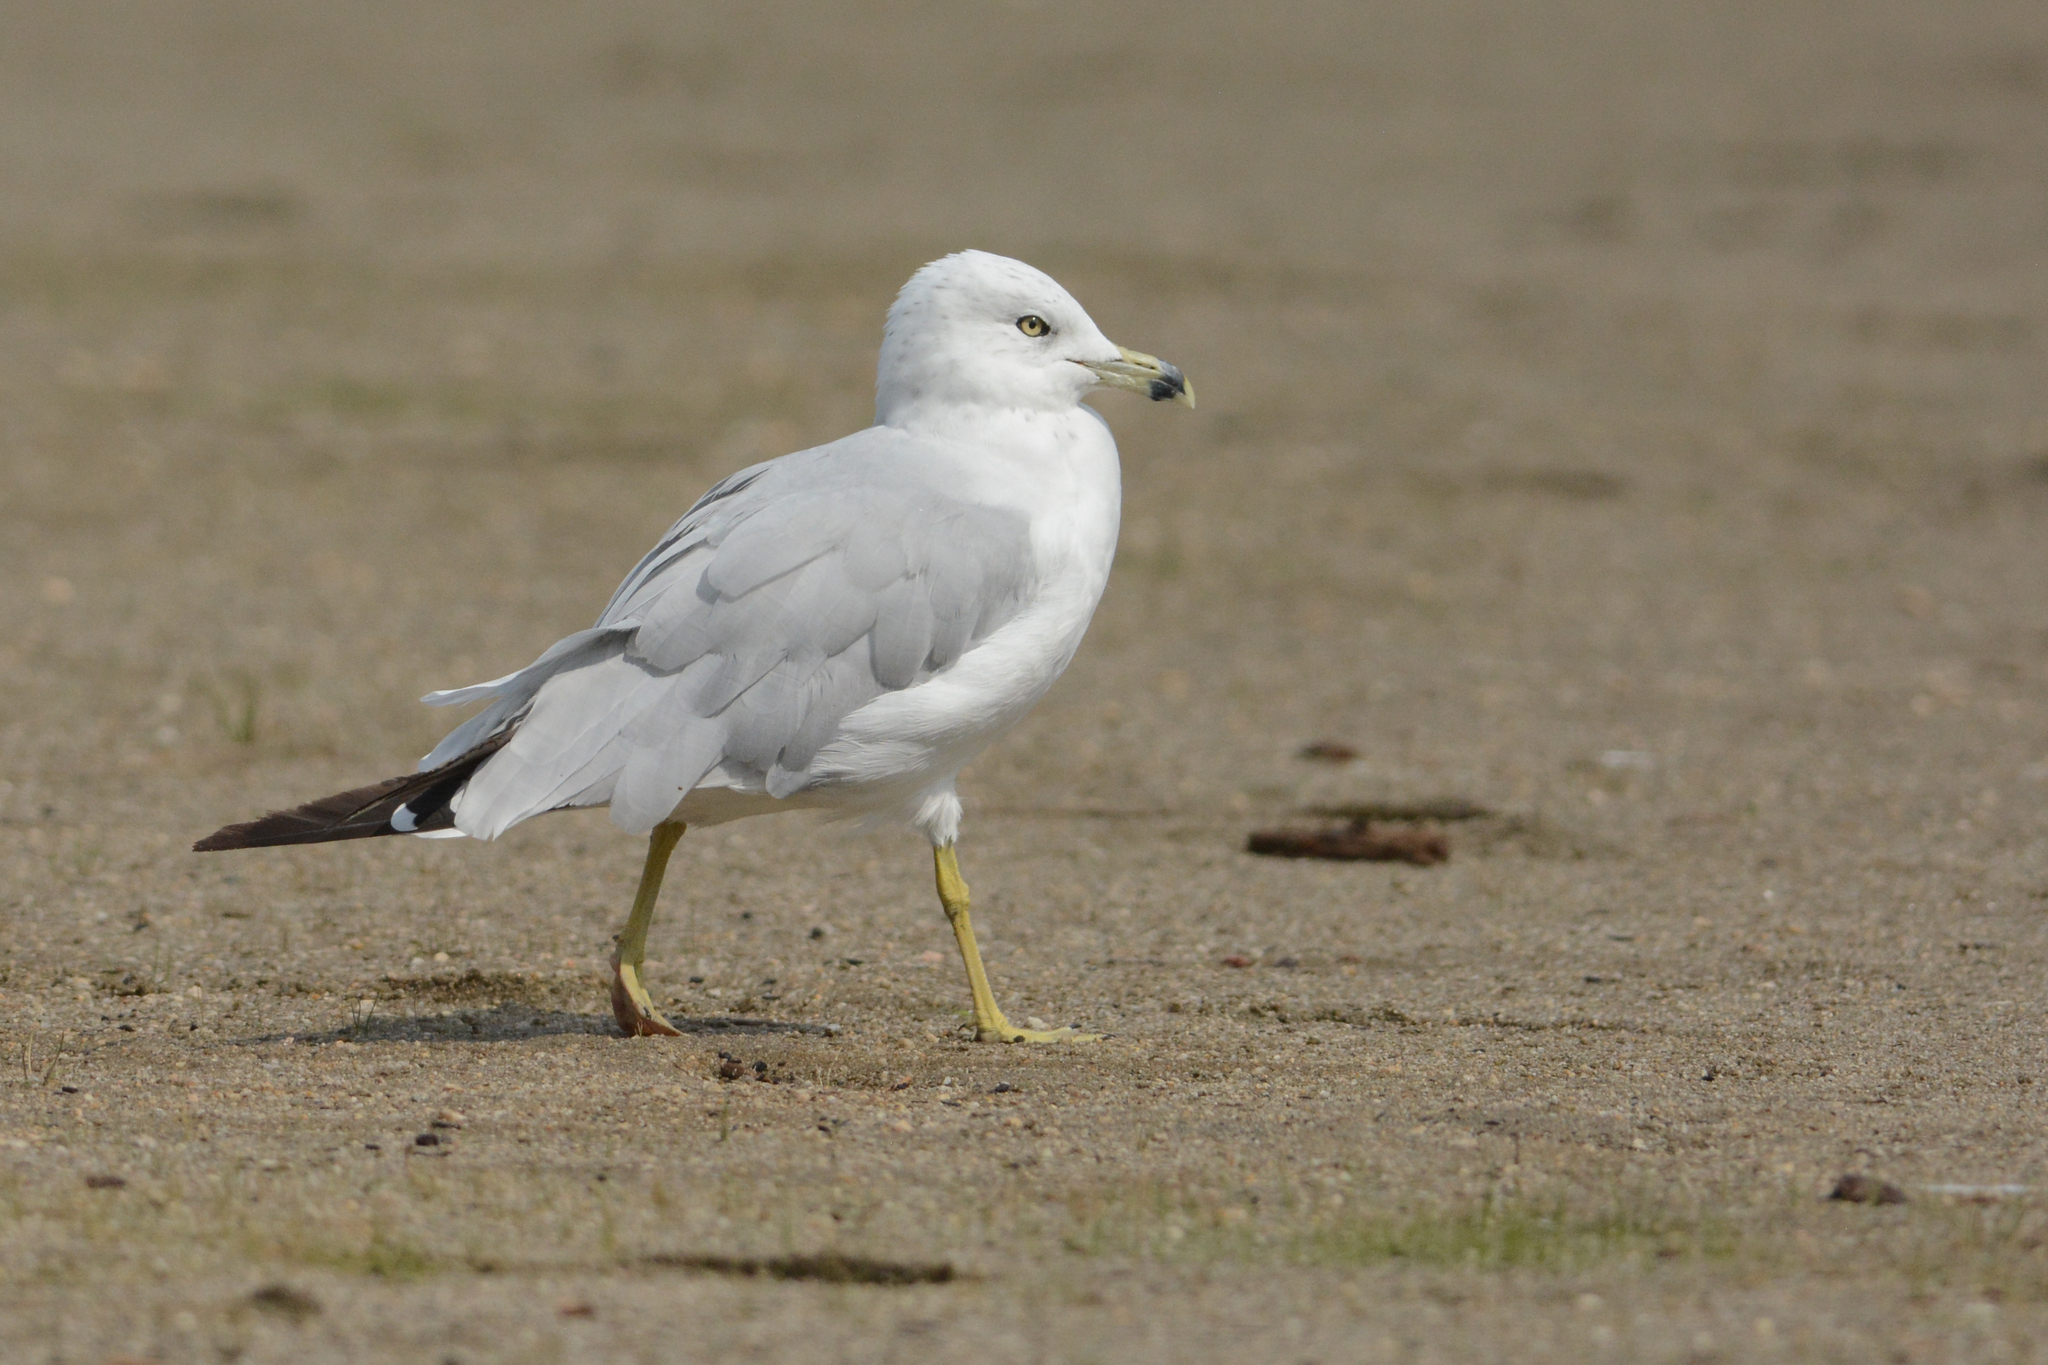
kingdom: Animalia
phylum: Chordata
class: Aves
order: Charadriiformes
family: Laridae
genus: Larus
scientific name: Larus delawarensis
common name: Ring-billed gull
